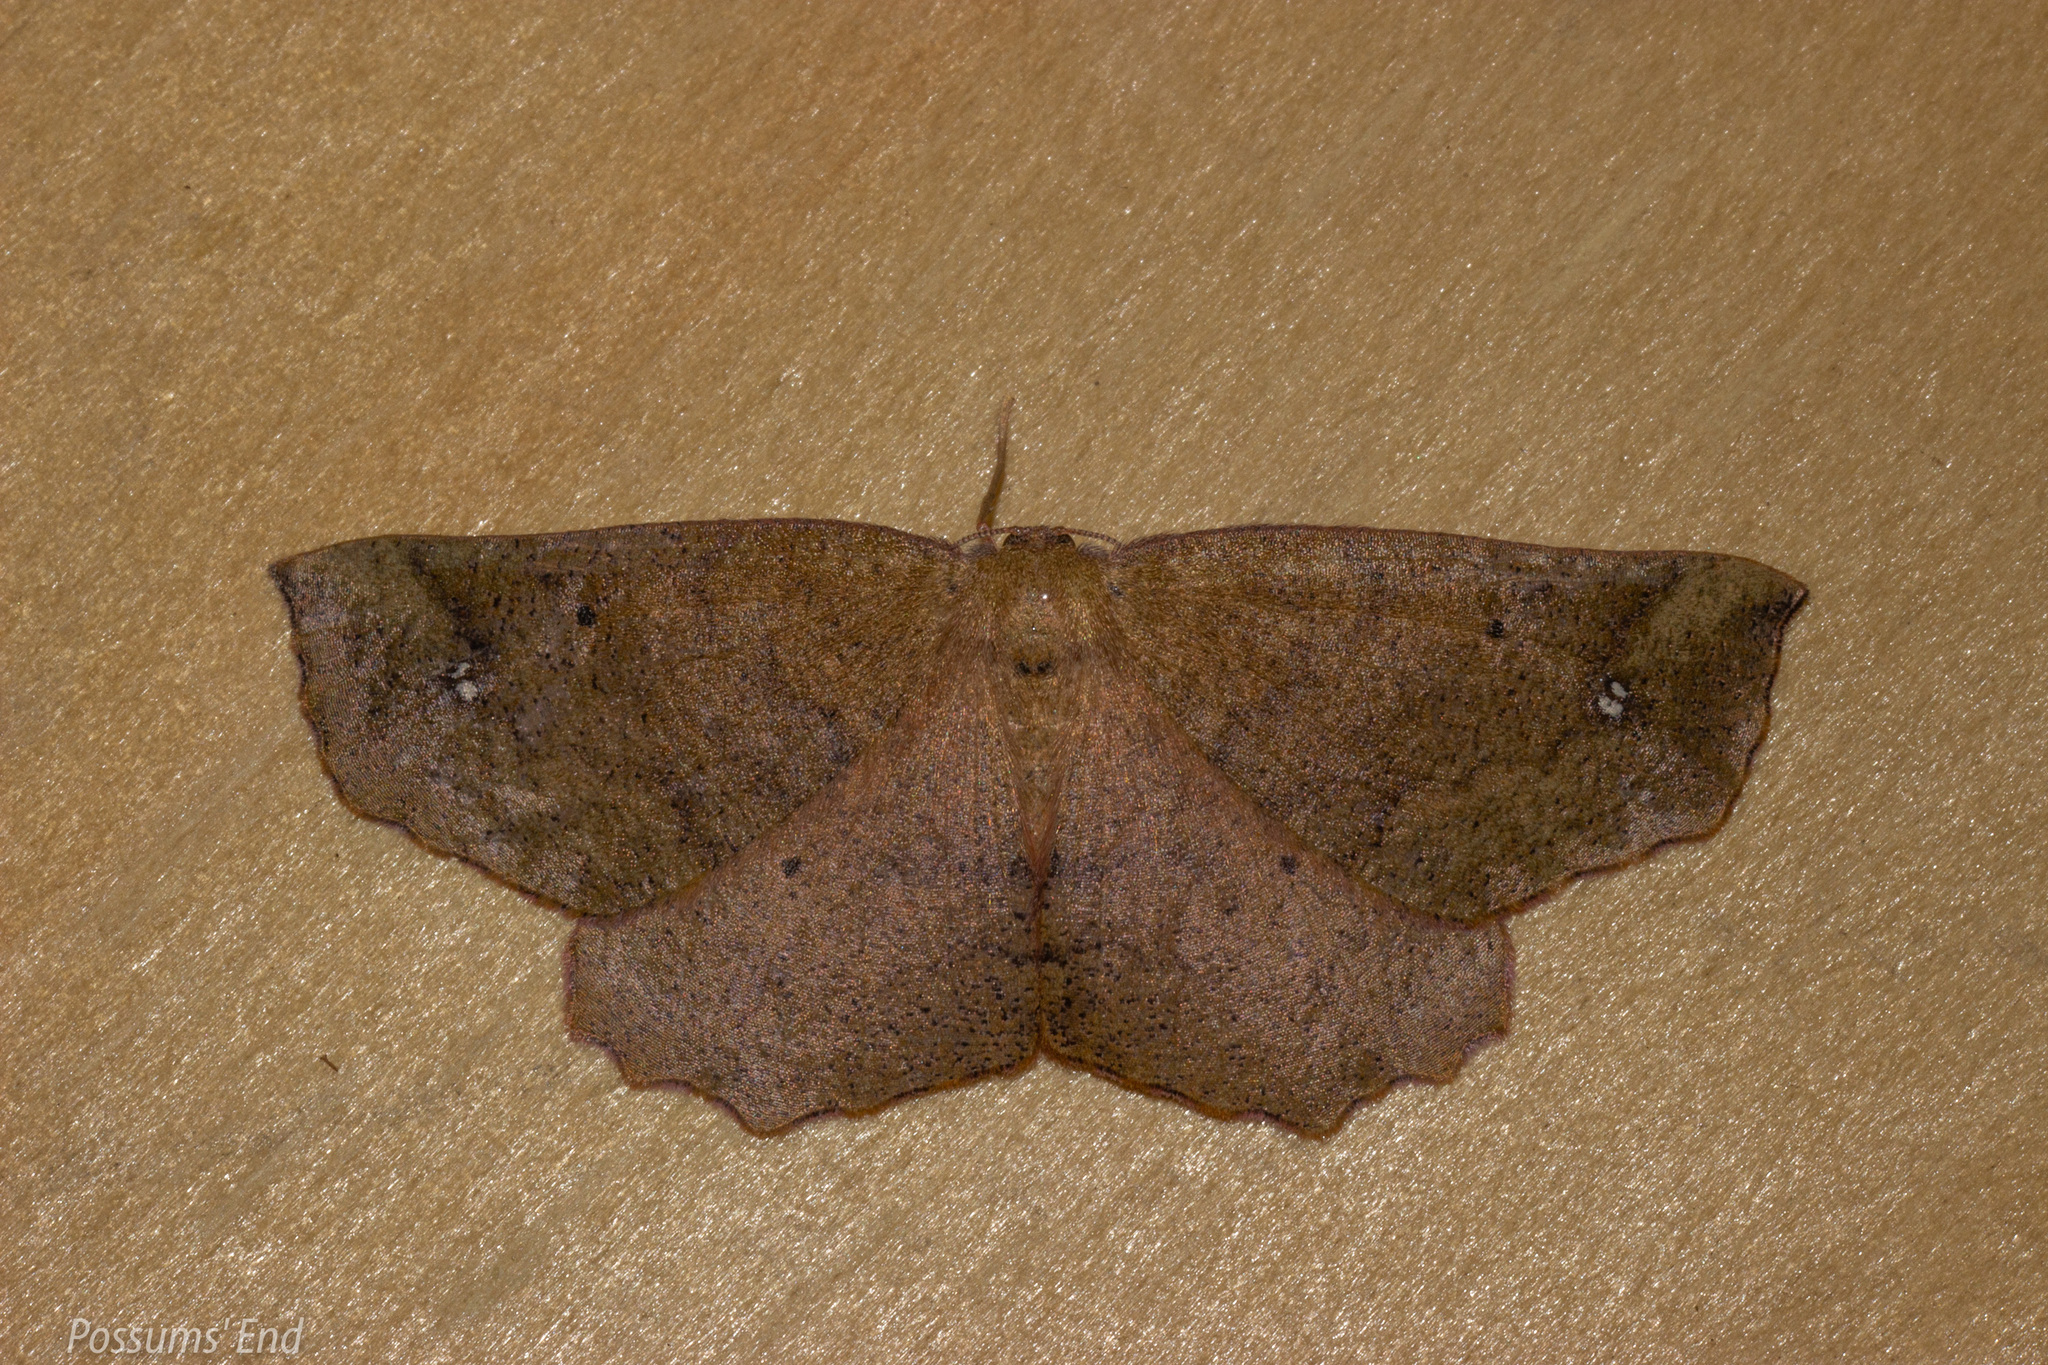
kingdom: Animalia
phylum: Arthropoda
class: Insecta
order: Lepidoptera
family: Geometridae
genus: Xyridacma
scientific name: Xyridacma ustaria
